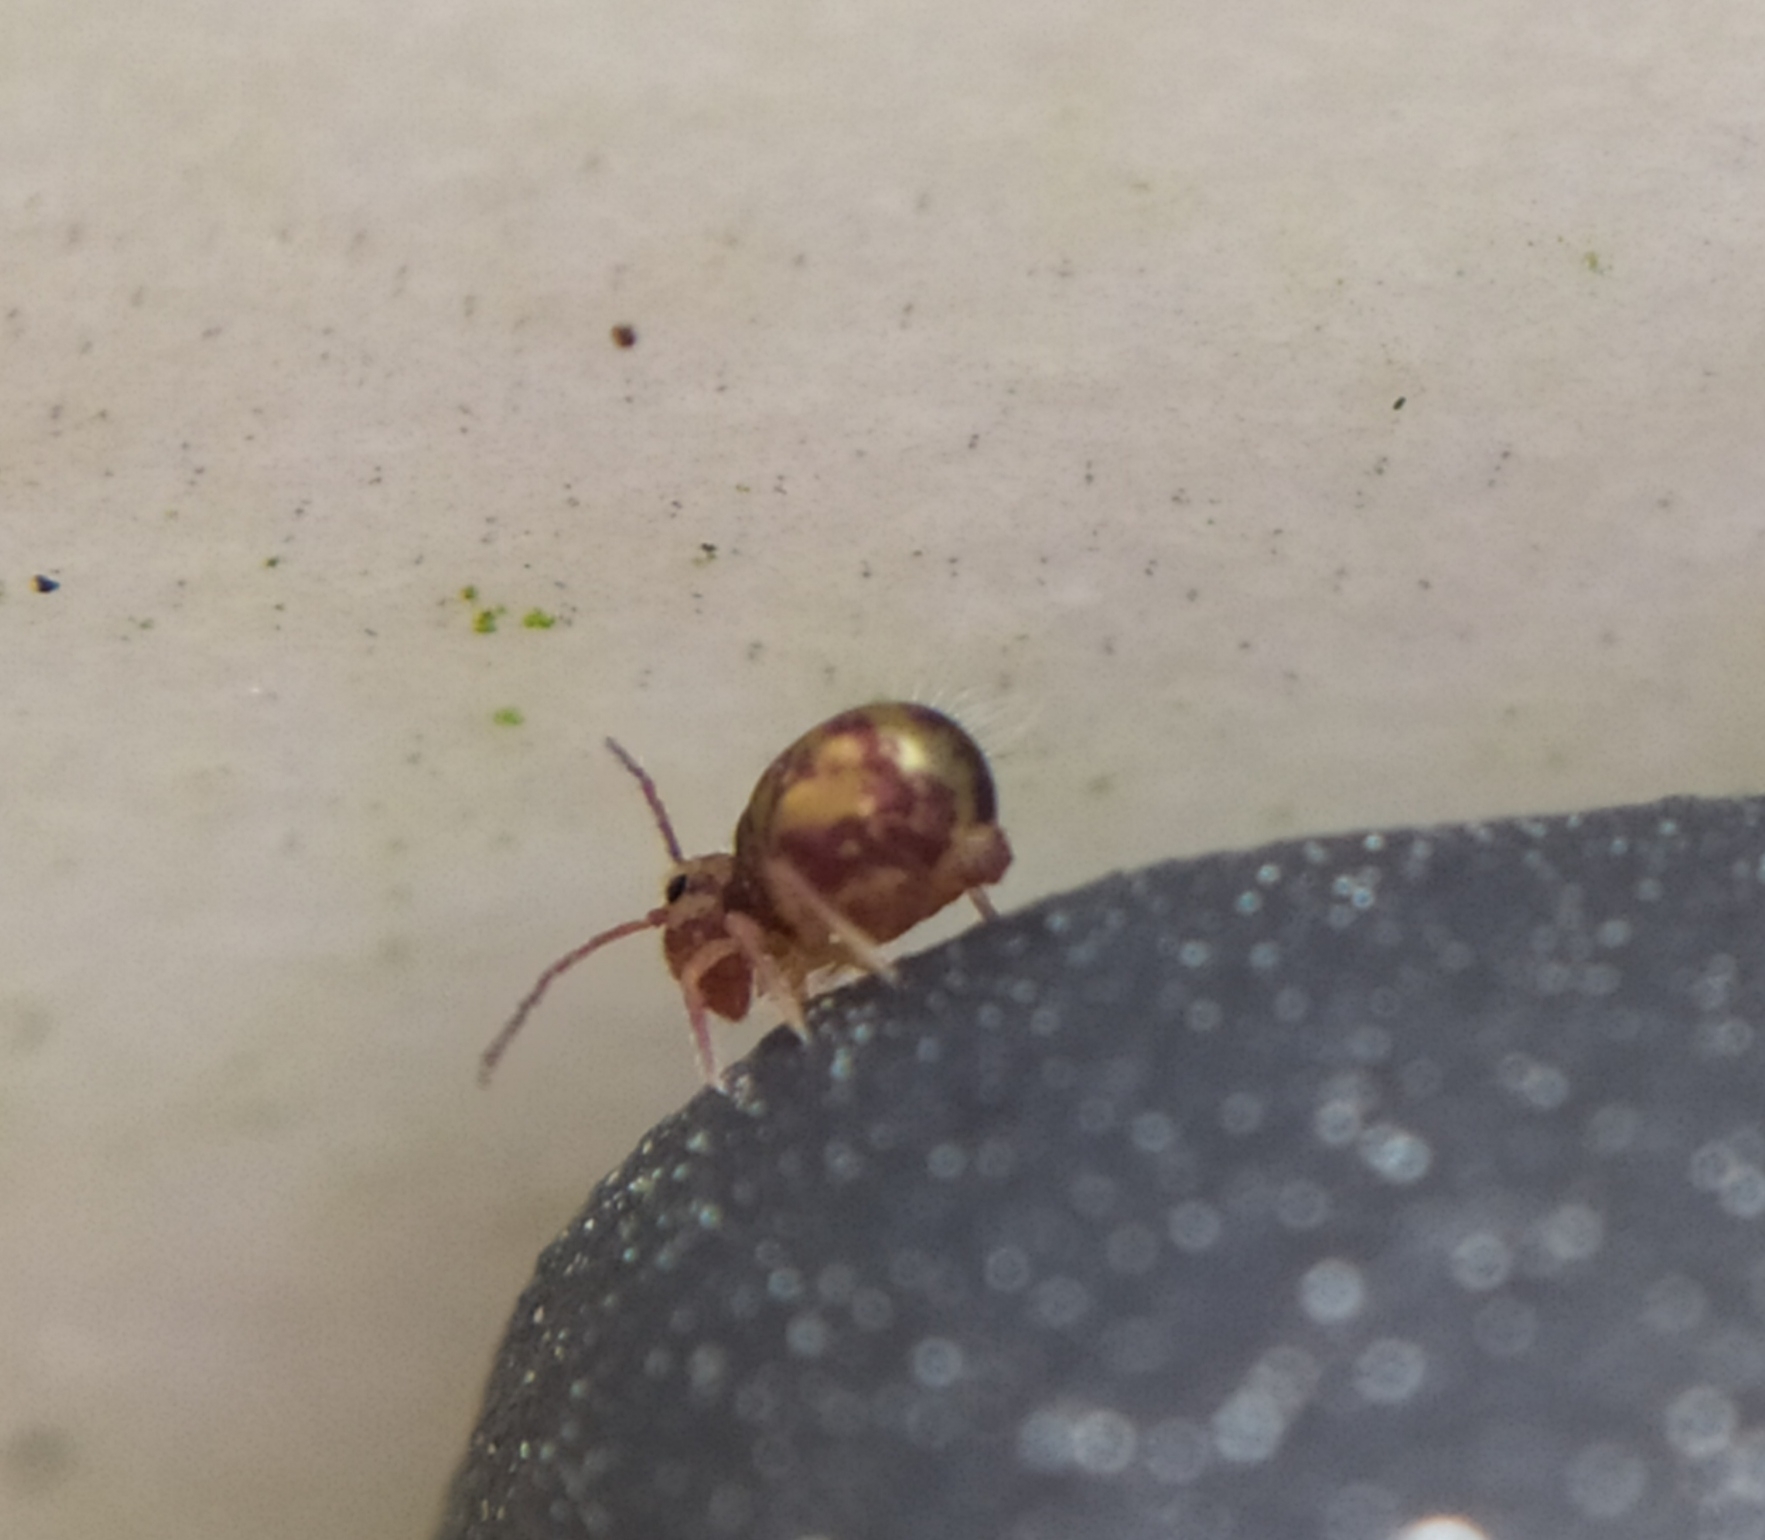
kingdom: Animalia
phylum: Arthropoda
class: Collembola
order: Symphypleona
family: Dicyrtomidae
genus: Dicyrtomina
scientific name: Dicyrtomina ornata
